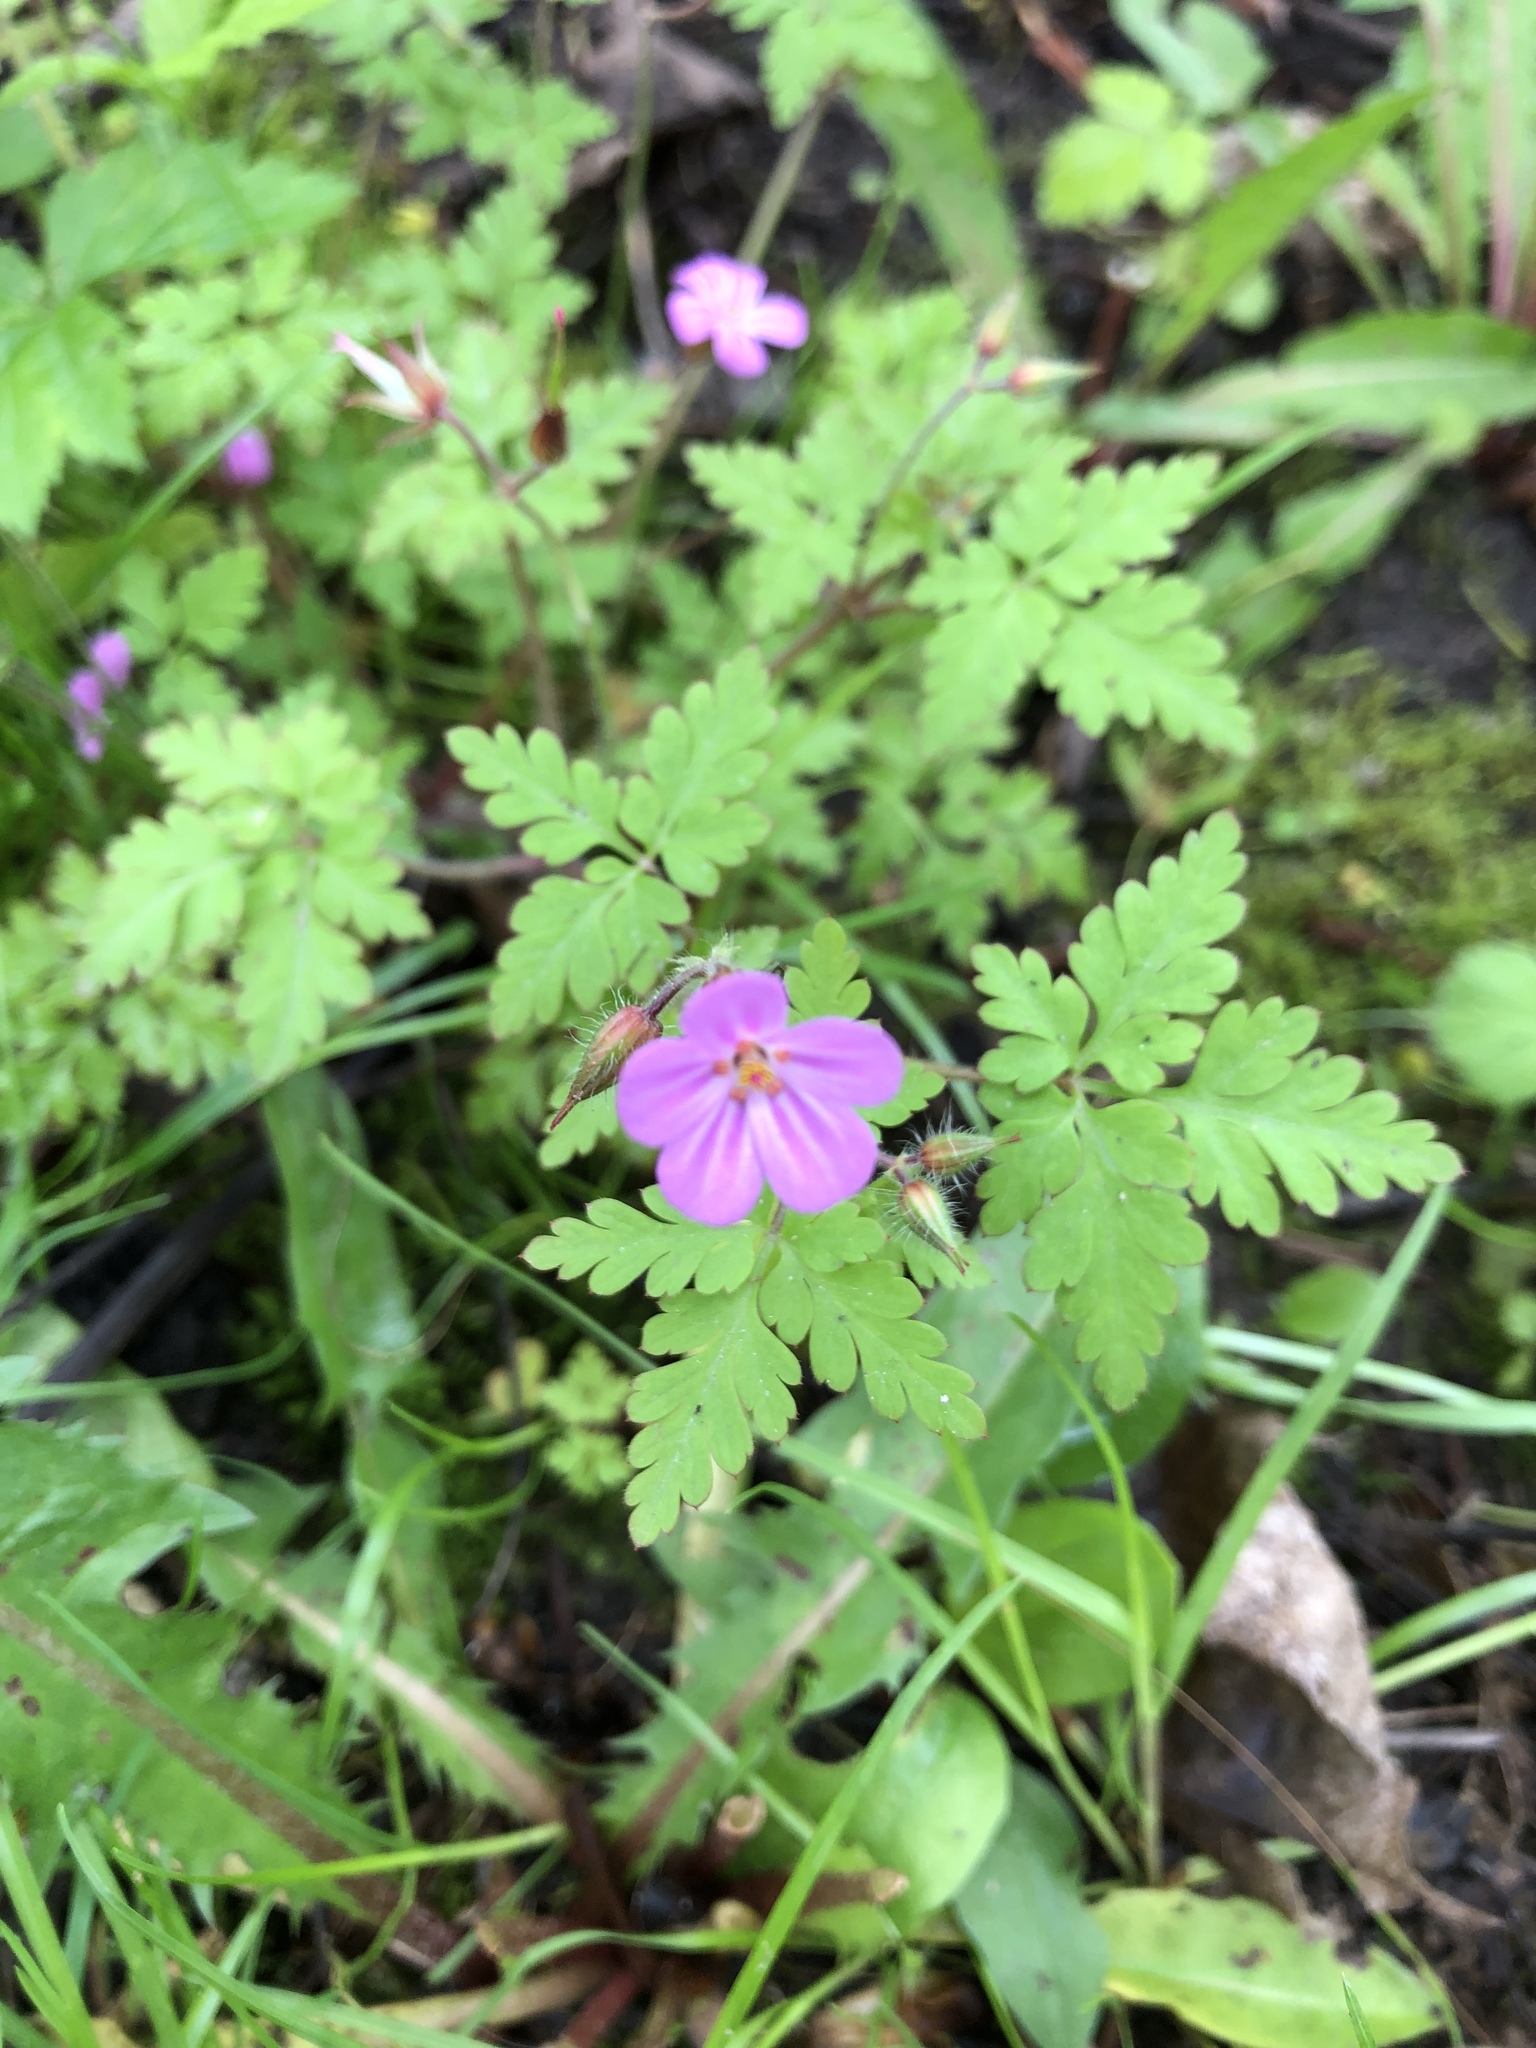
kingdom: Plantae
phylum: Tracheophyta
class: Magnoliopsida
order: Geraniales
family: Geraniaceae
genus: Geranium
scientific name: Geranium robertianum
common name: Herb-robert
